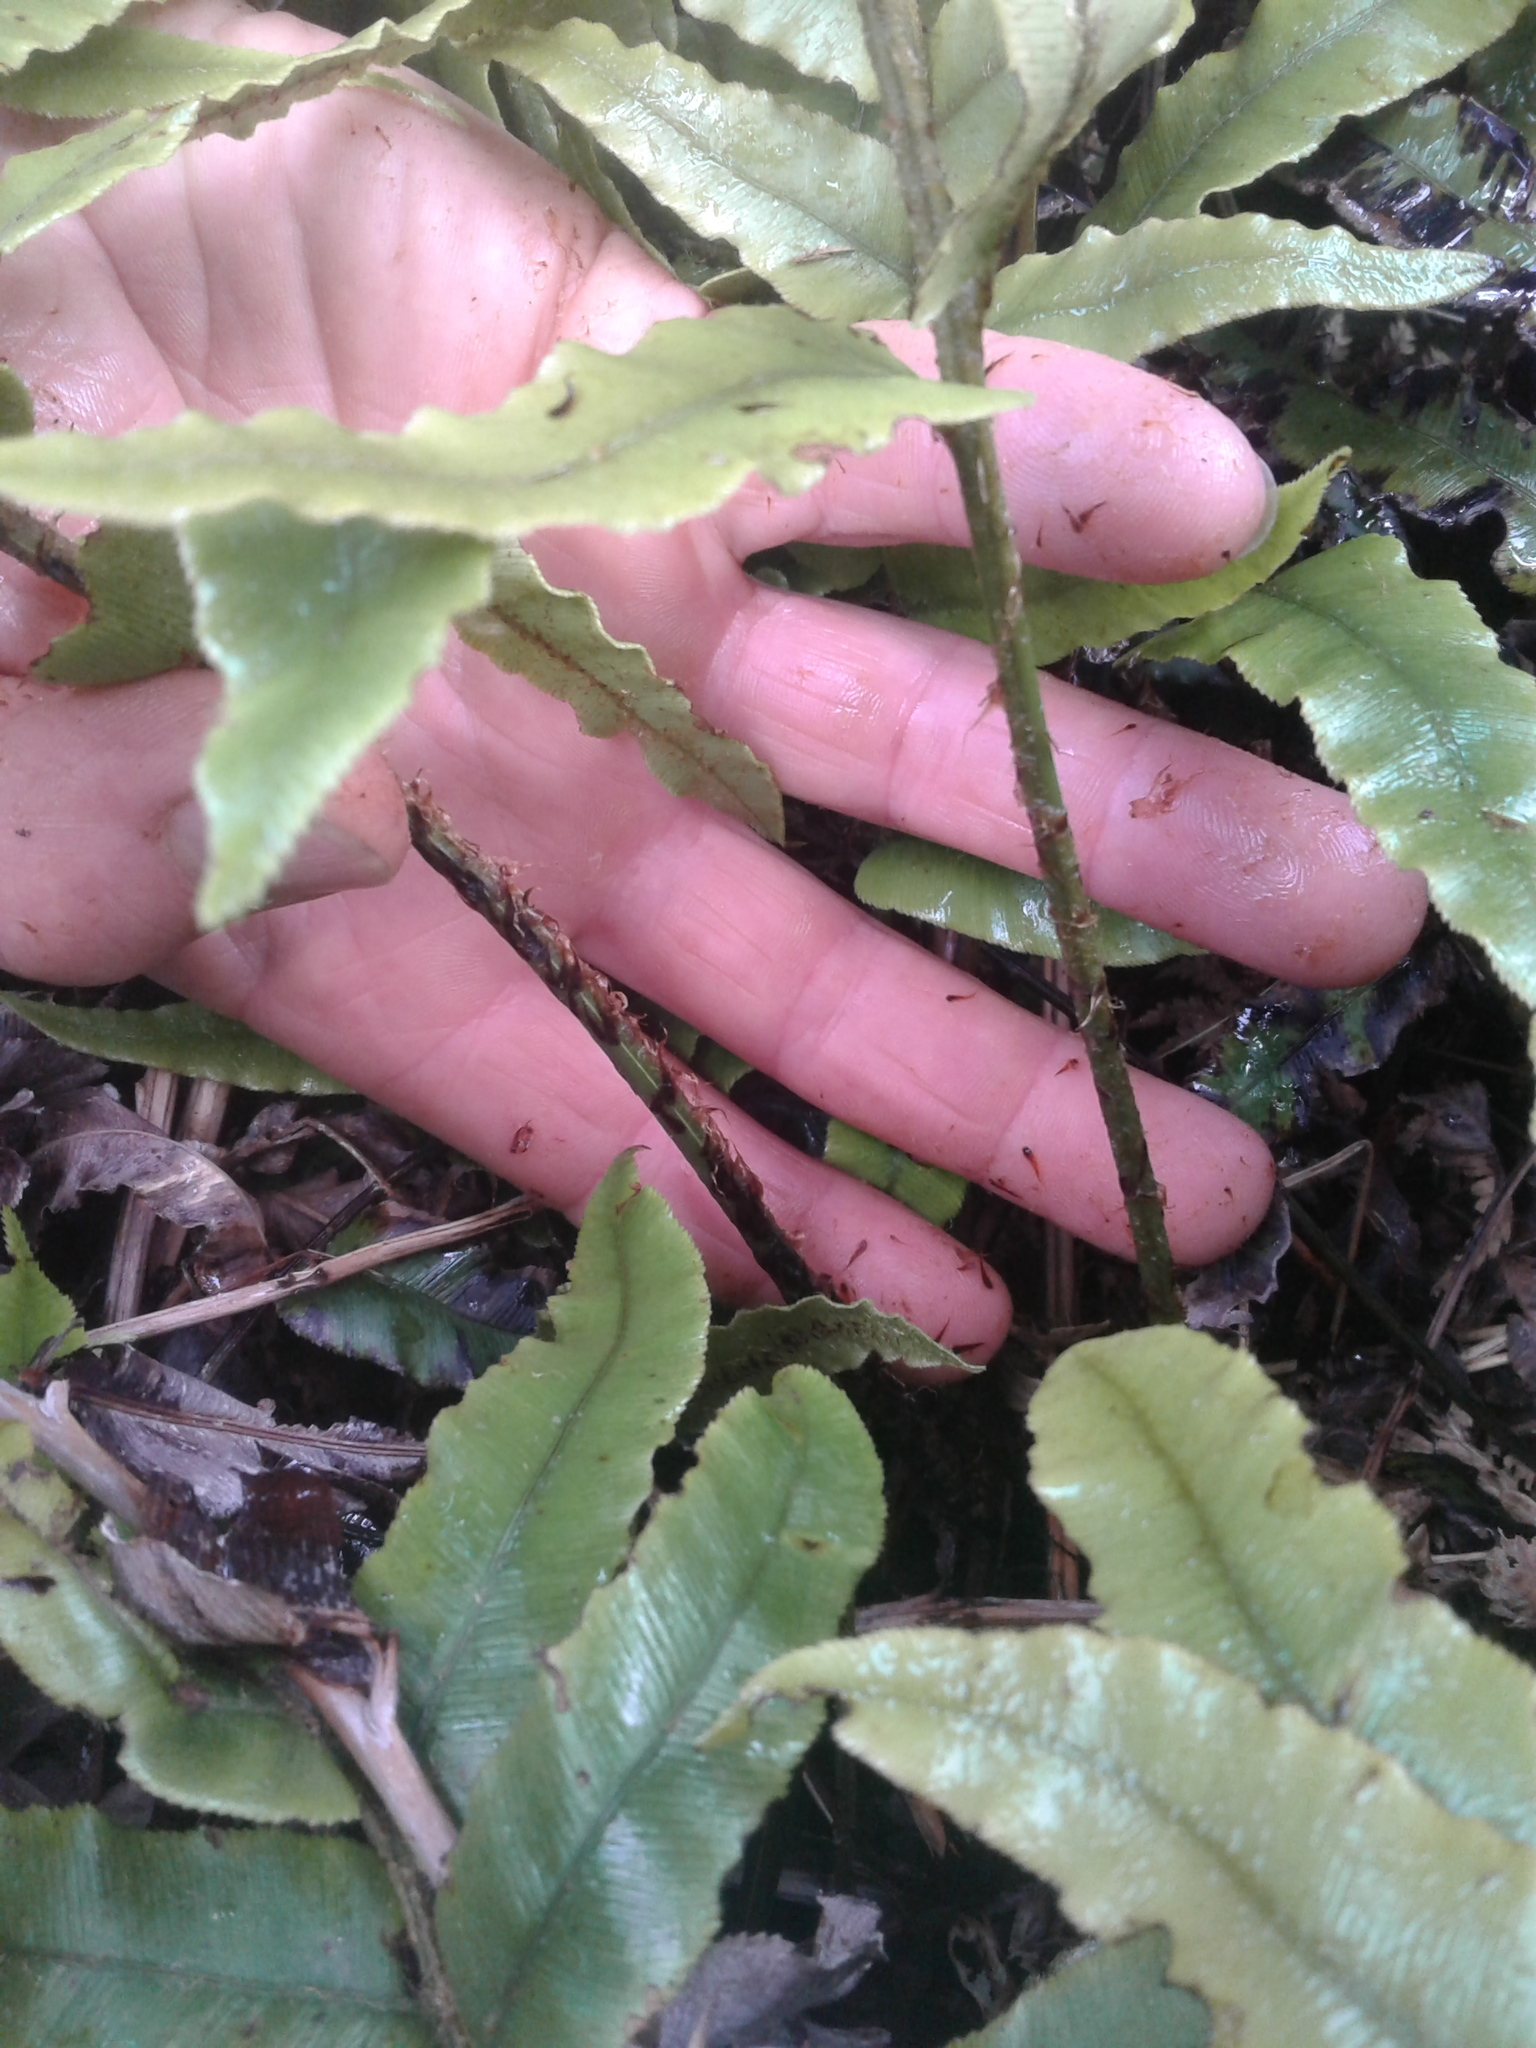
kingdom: Plantae
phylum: Tracheophyta
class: Polypodiopsida
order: Polypodiales
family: Blechnaceae
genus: Parablechnum
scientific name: Parablechnum procerum
